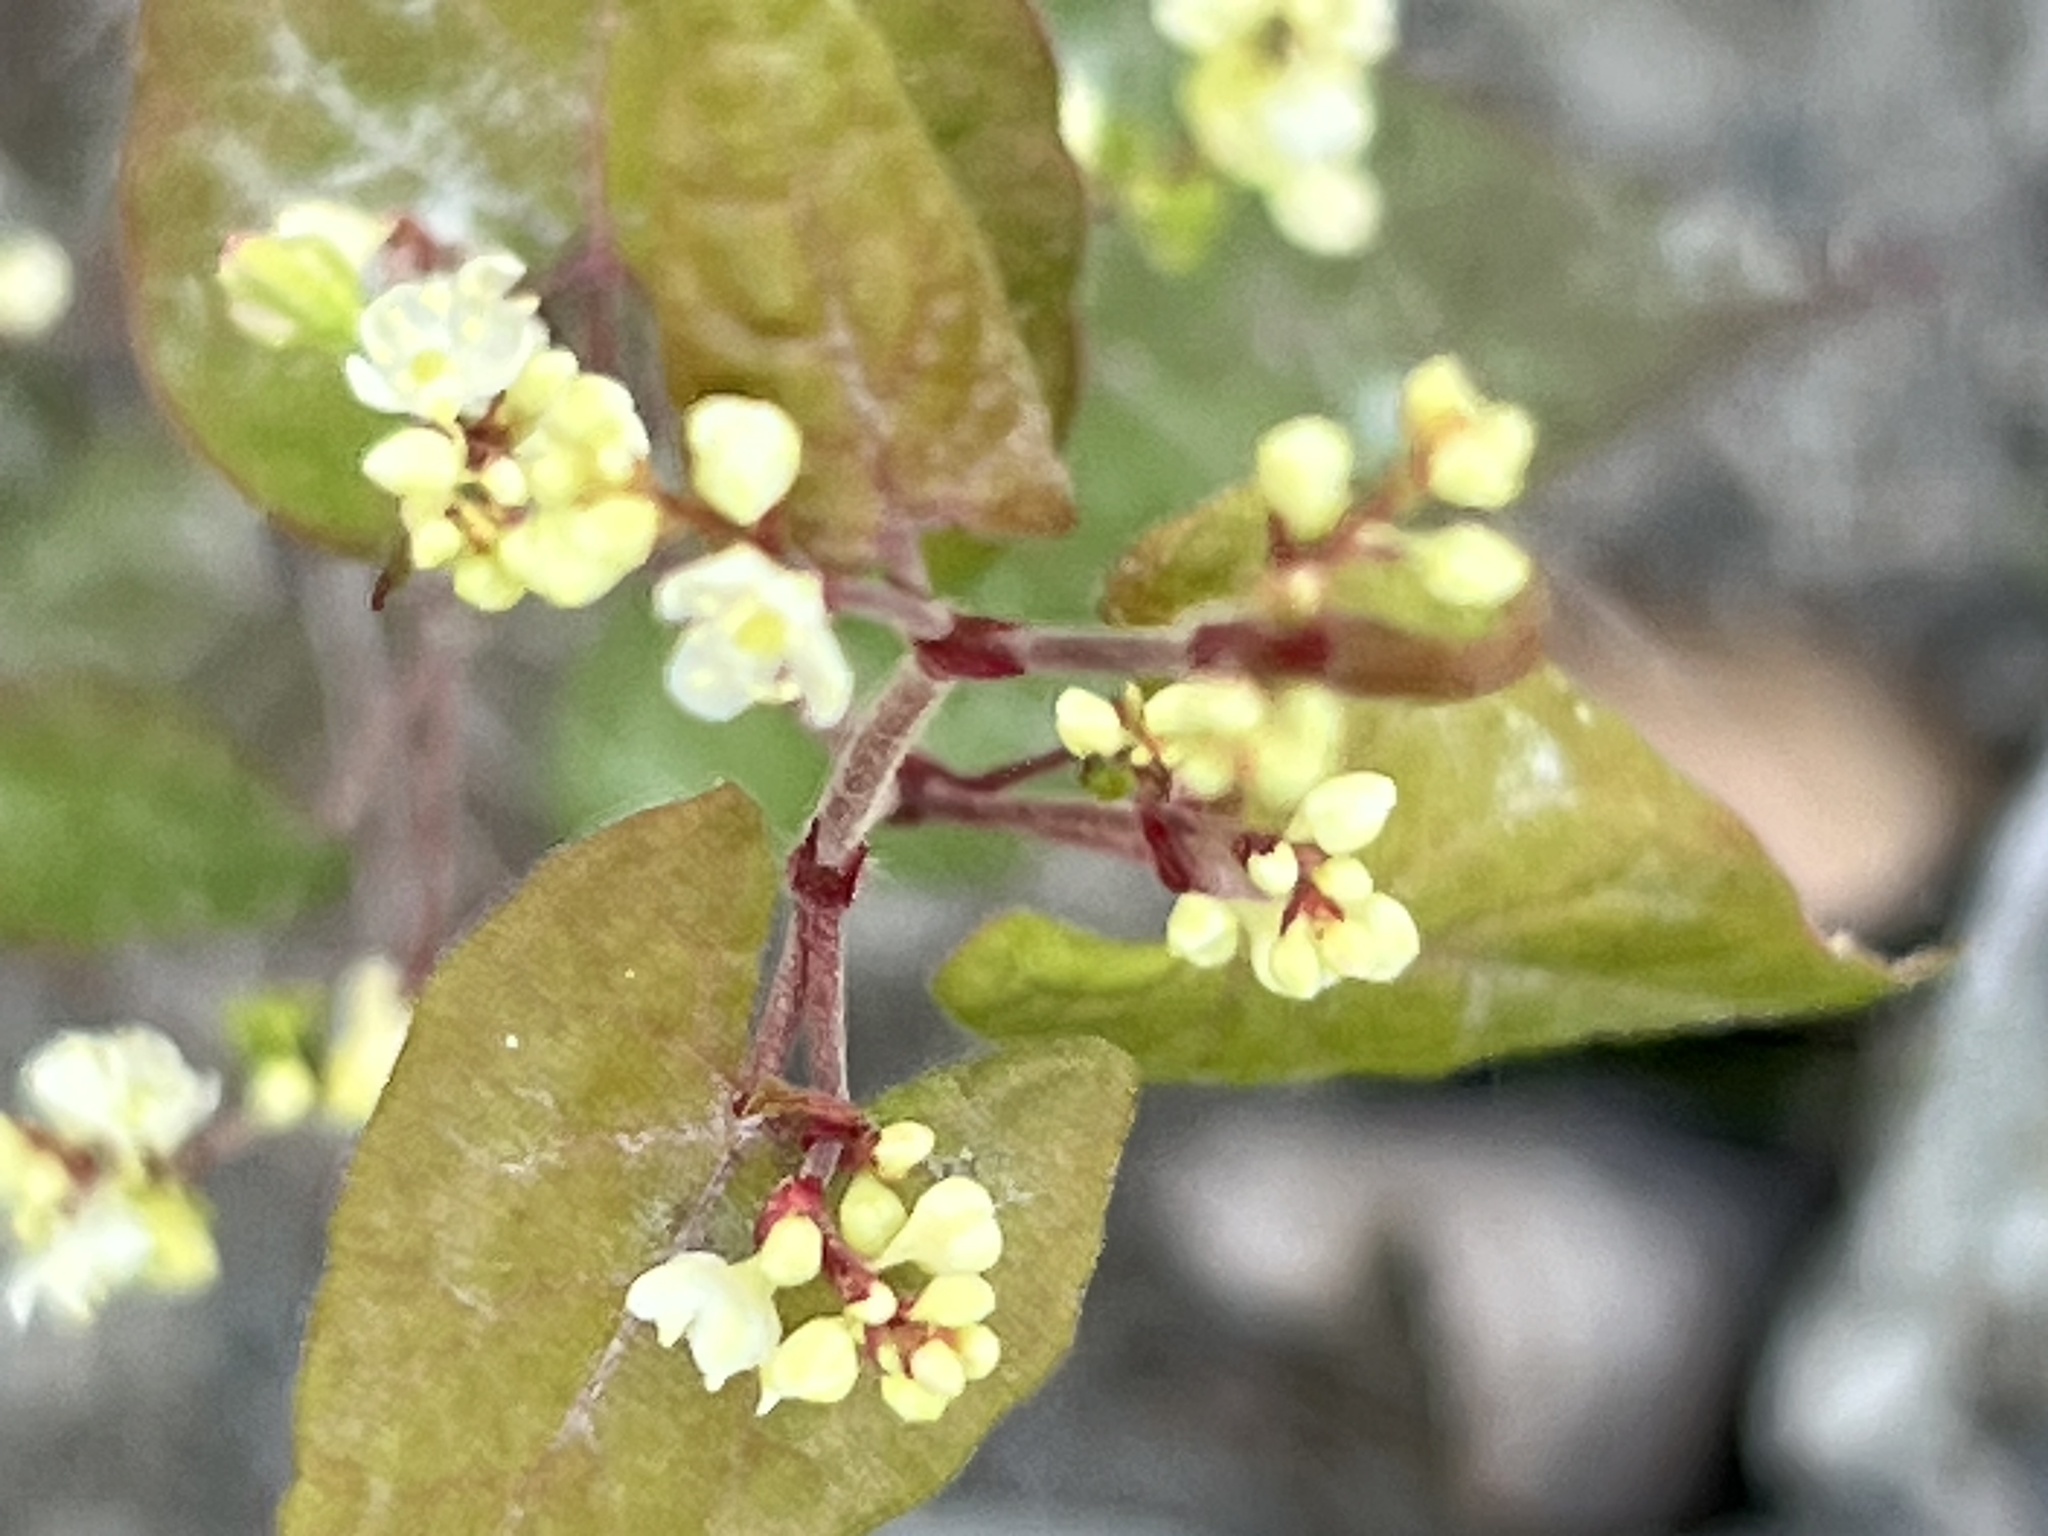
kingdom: Plantae
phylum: Tracheophyta
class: Magnoliopsida
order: Caryophyllales
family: Polygonaceae
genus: Parogonum
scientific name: Parogonum ciliinode
